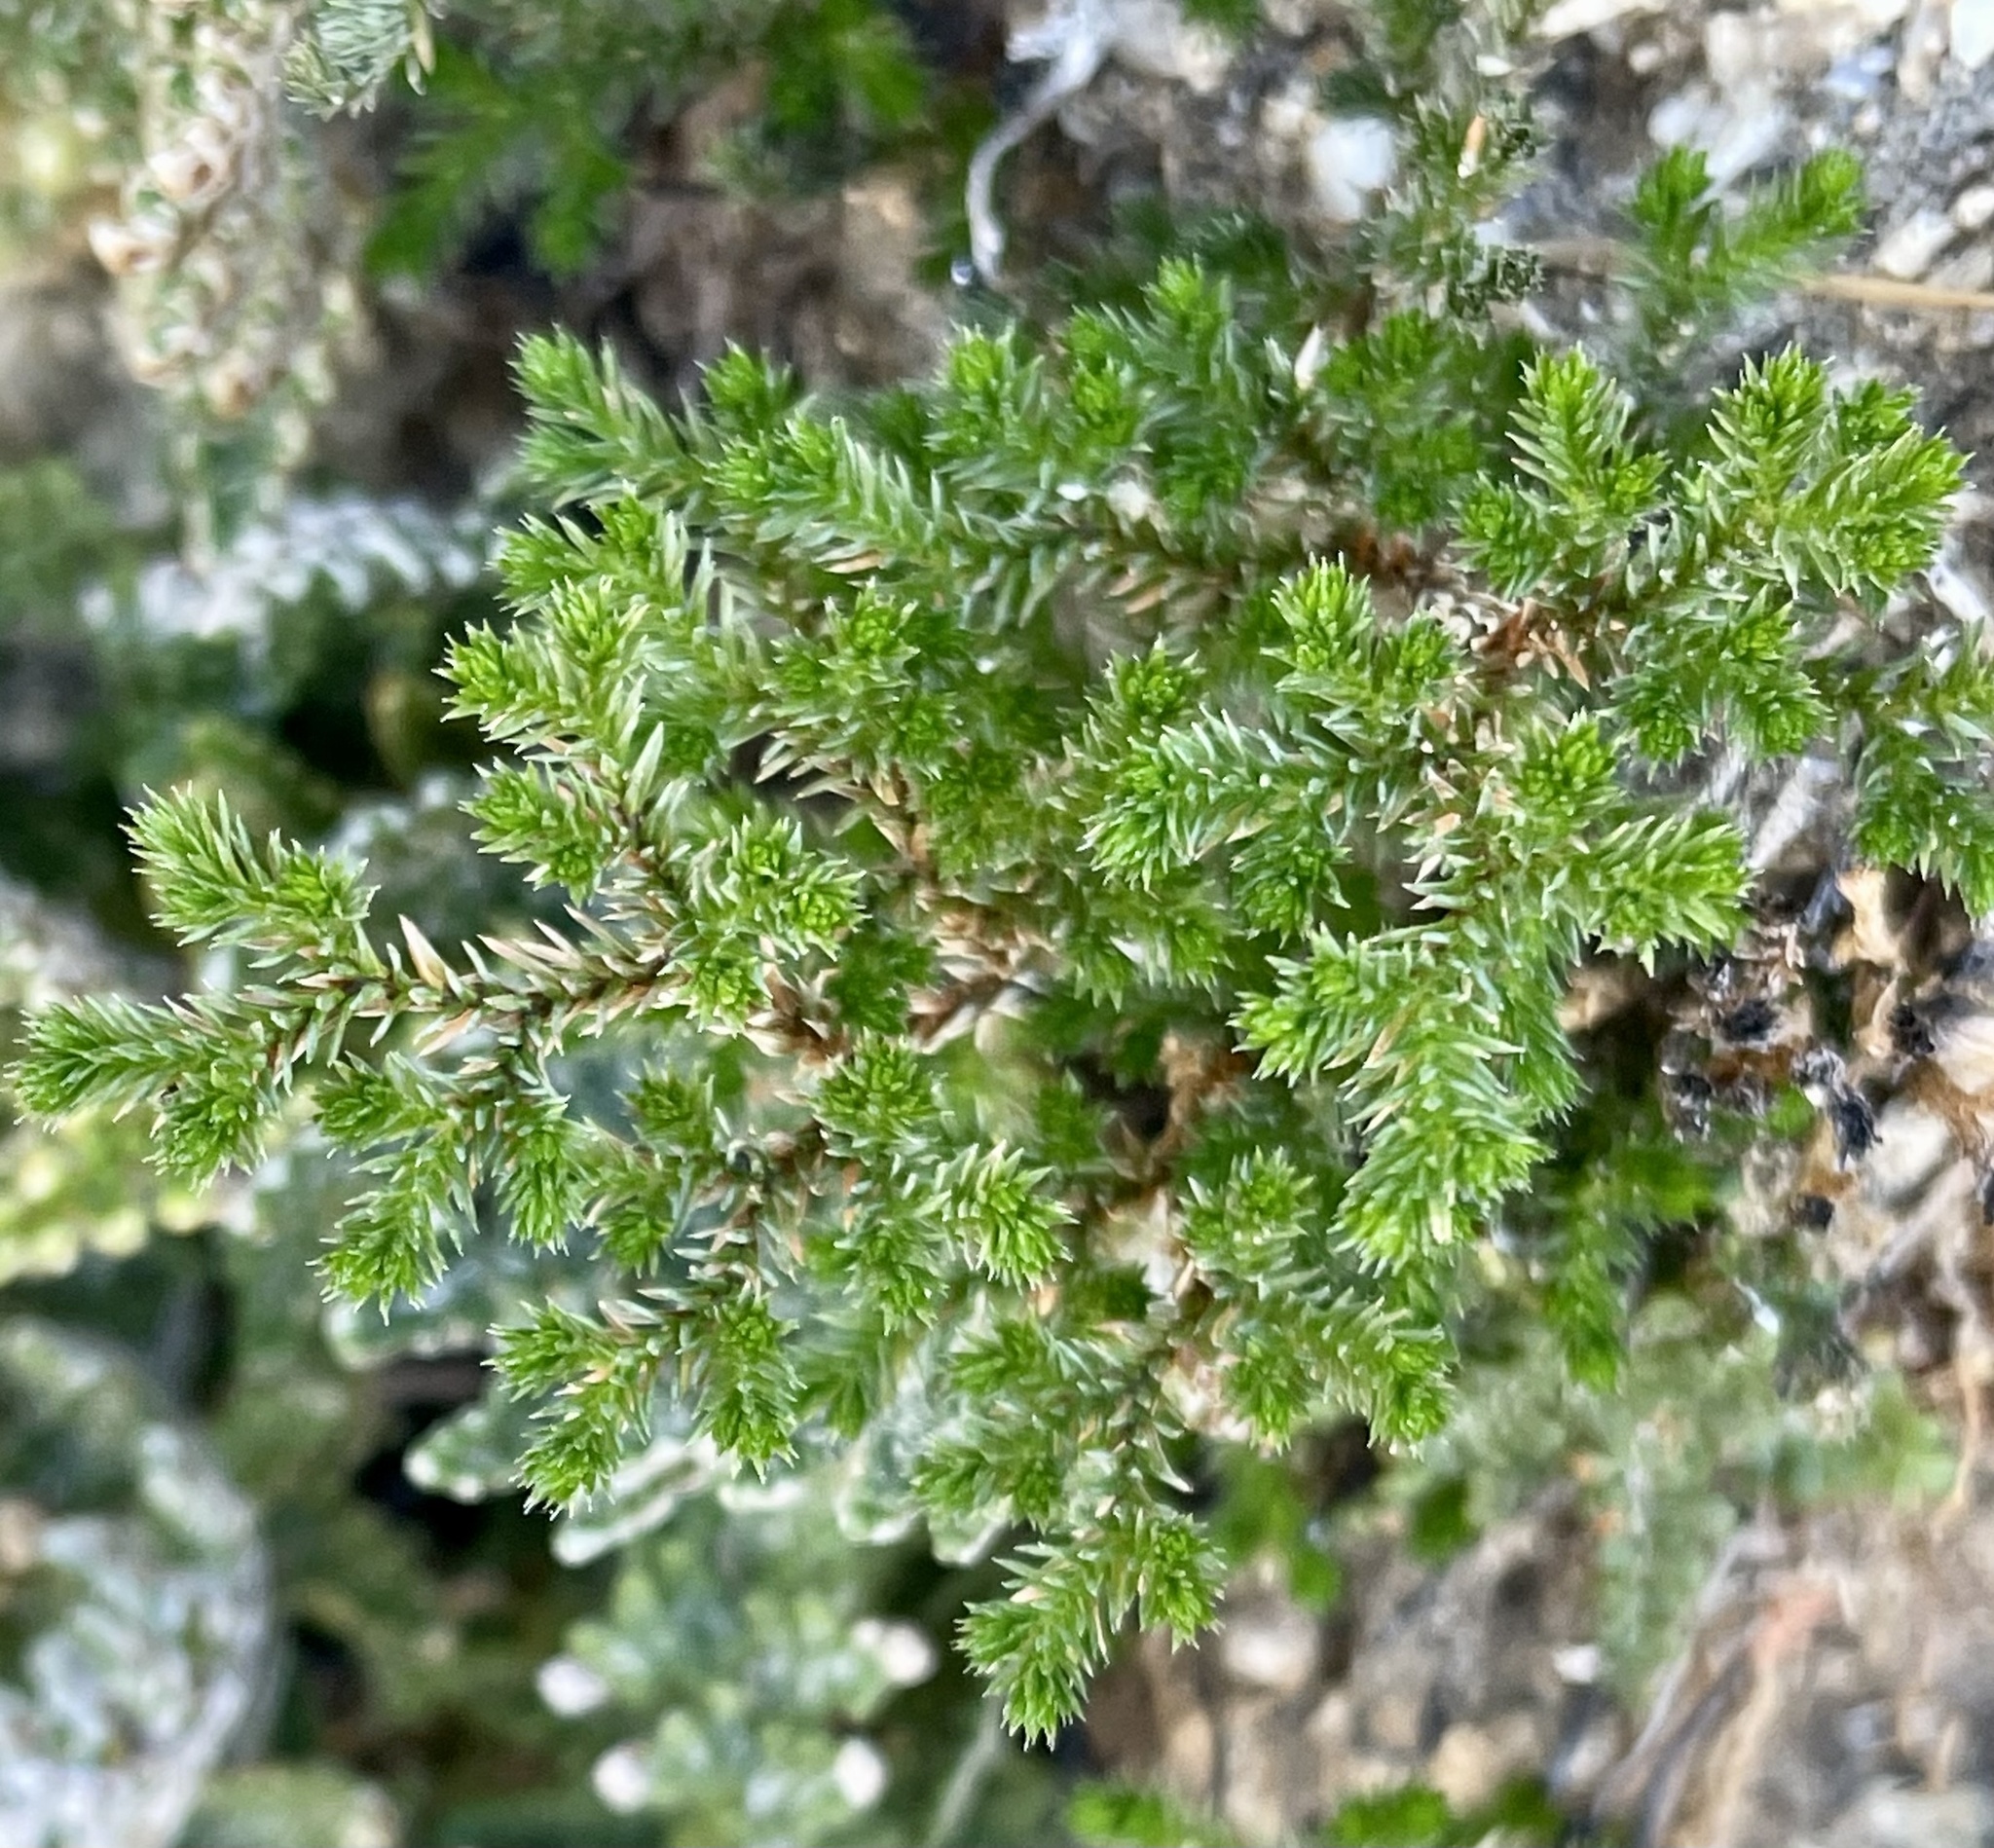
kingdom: Plantae
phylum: Tracheophyta
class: Lycopodiopsida
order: Selaginellales
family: Selaginellaceae
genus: Selaginella
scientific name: Selaginella bigelovii
